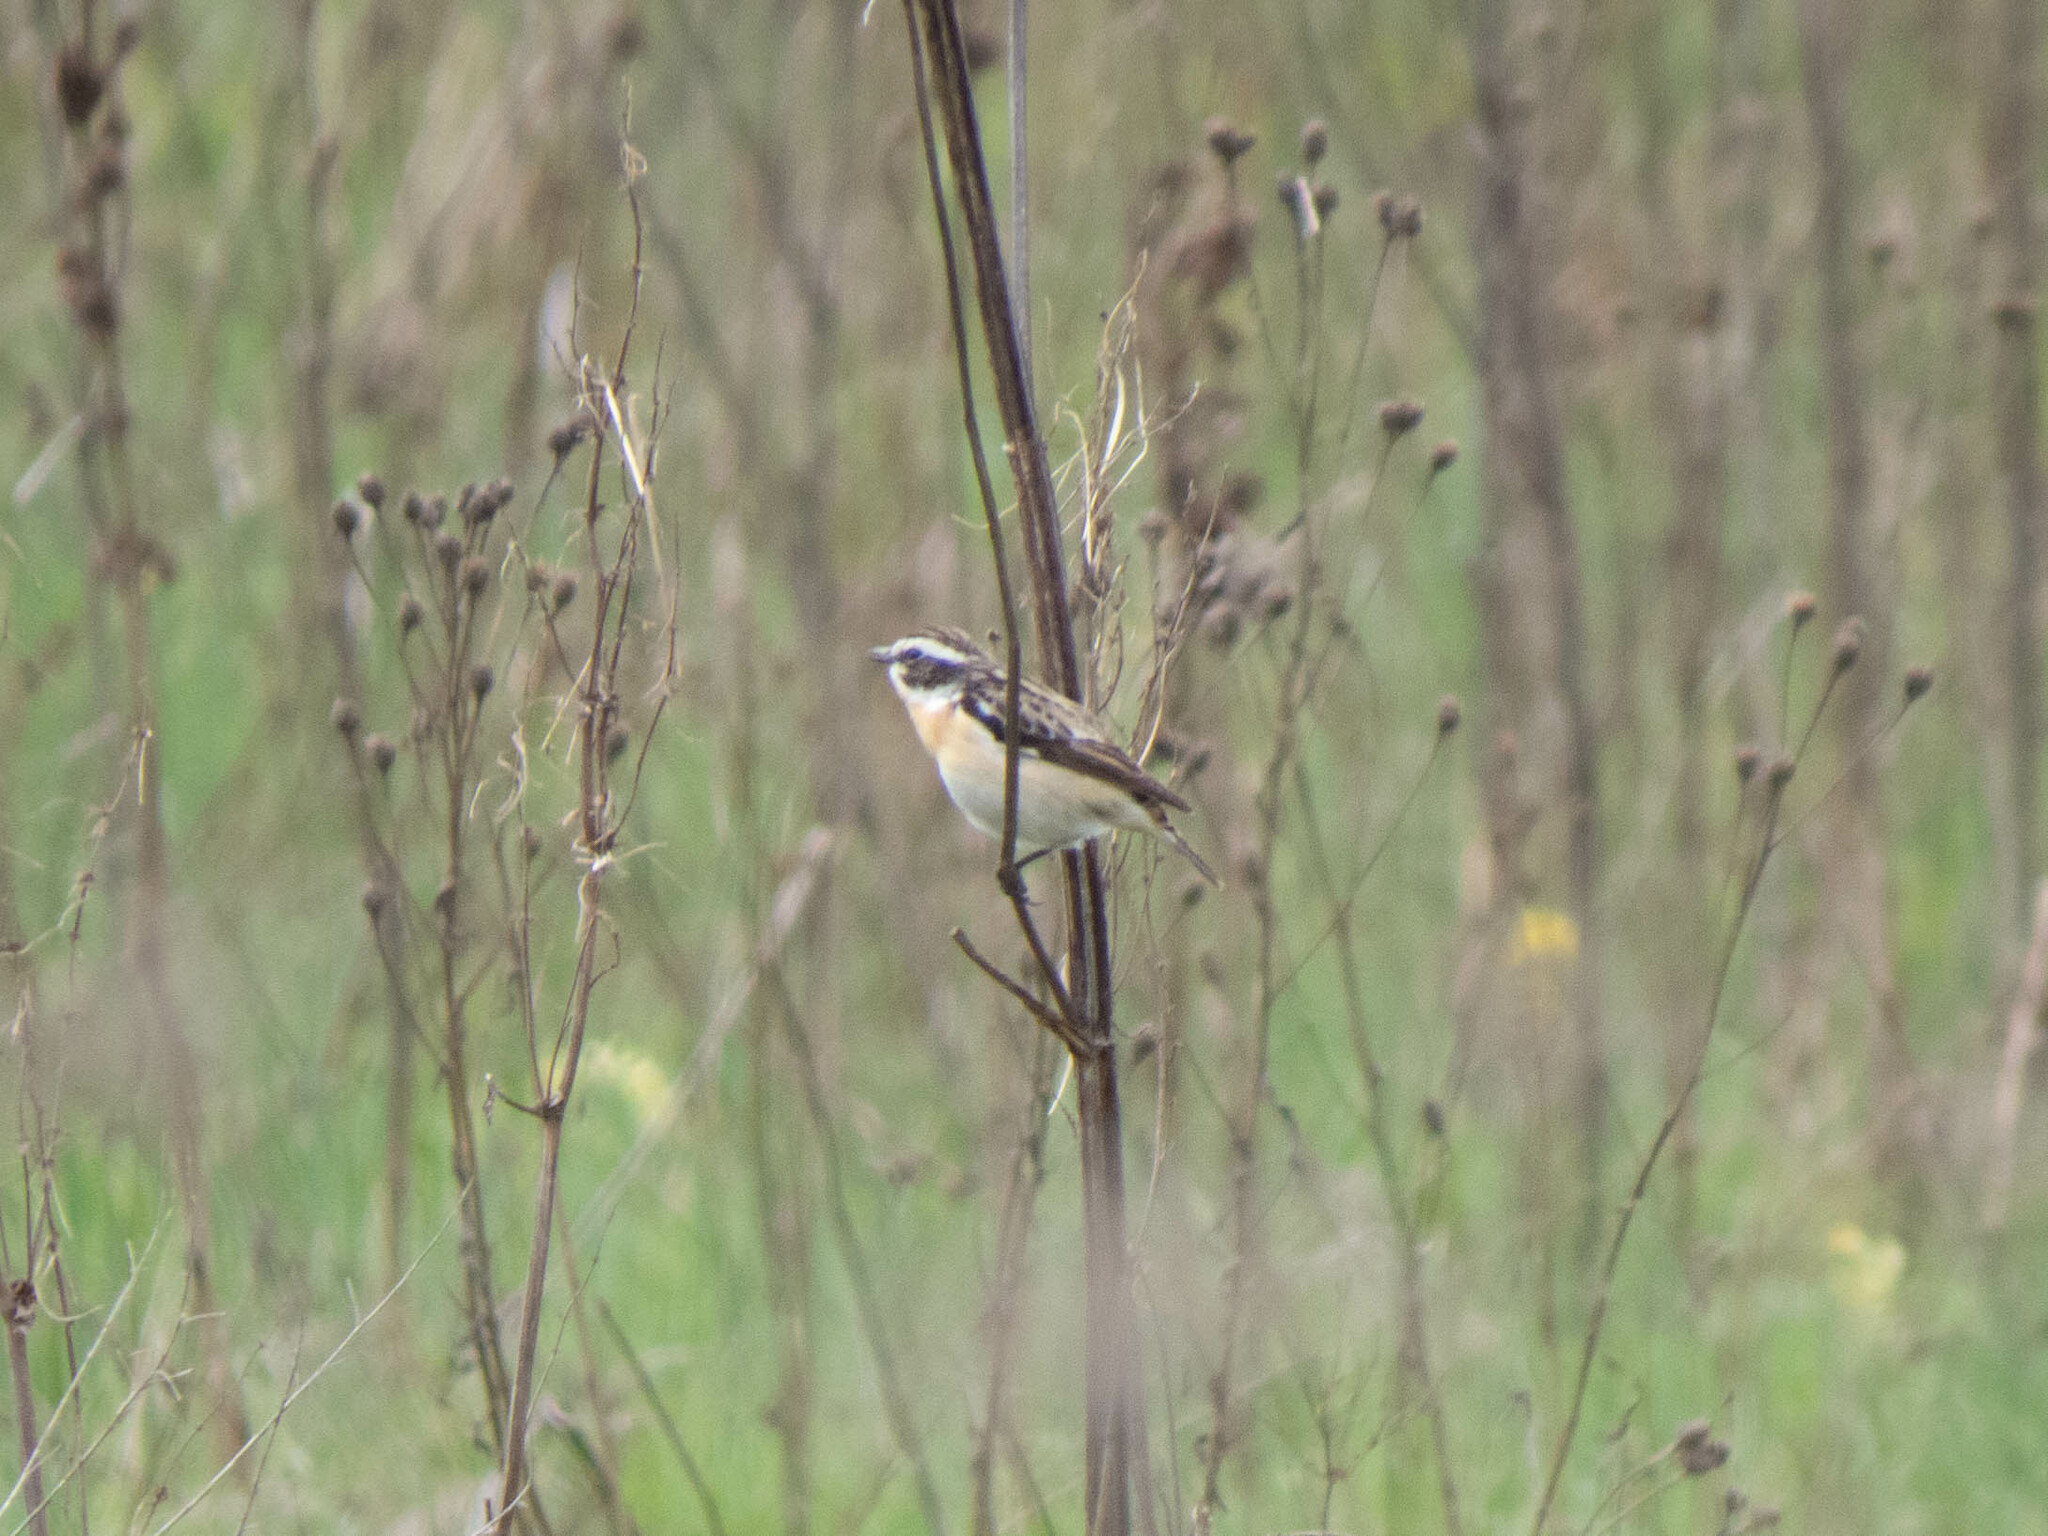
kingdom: Animalia
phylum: Chordata
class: Aves
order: Passeriformes
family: Muscicapidae
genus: Saxicola
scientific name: Saxicola rubetra
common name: Whinchat
